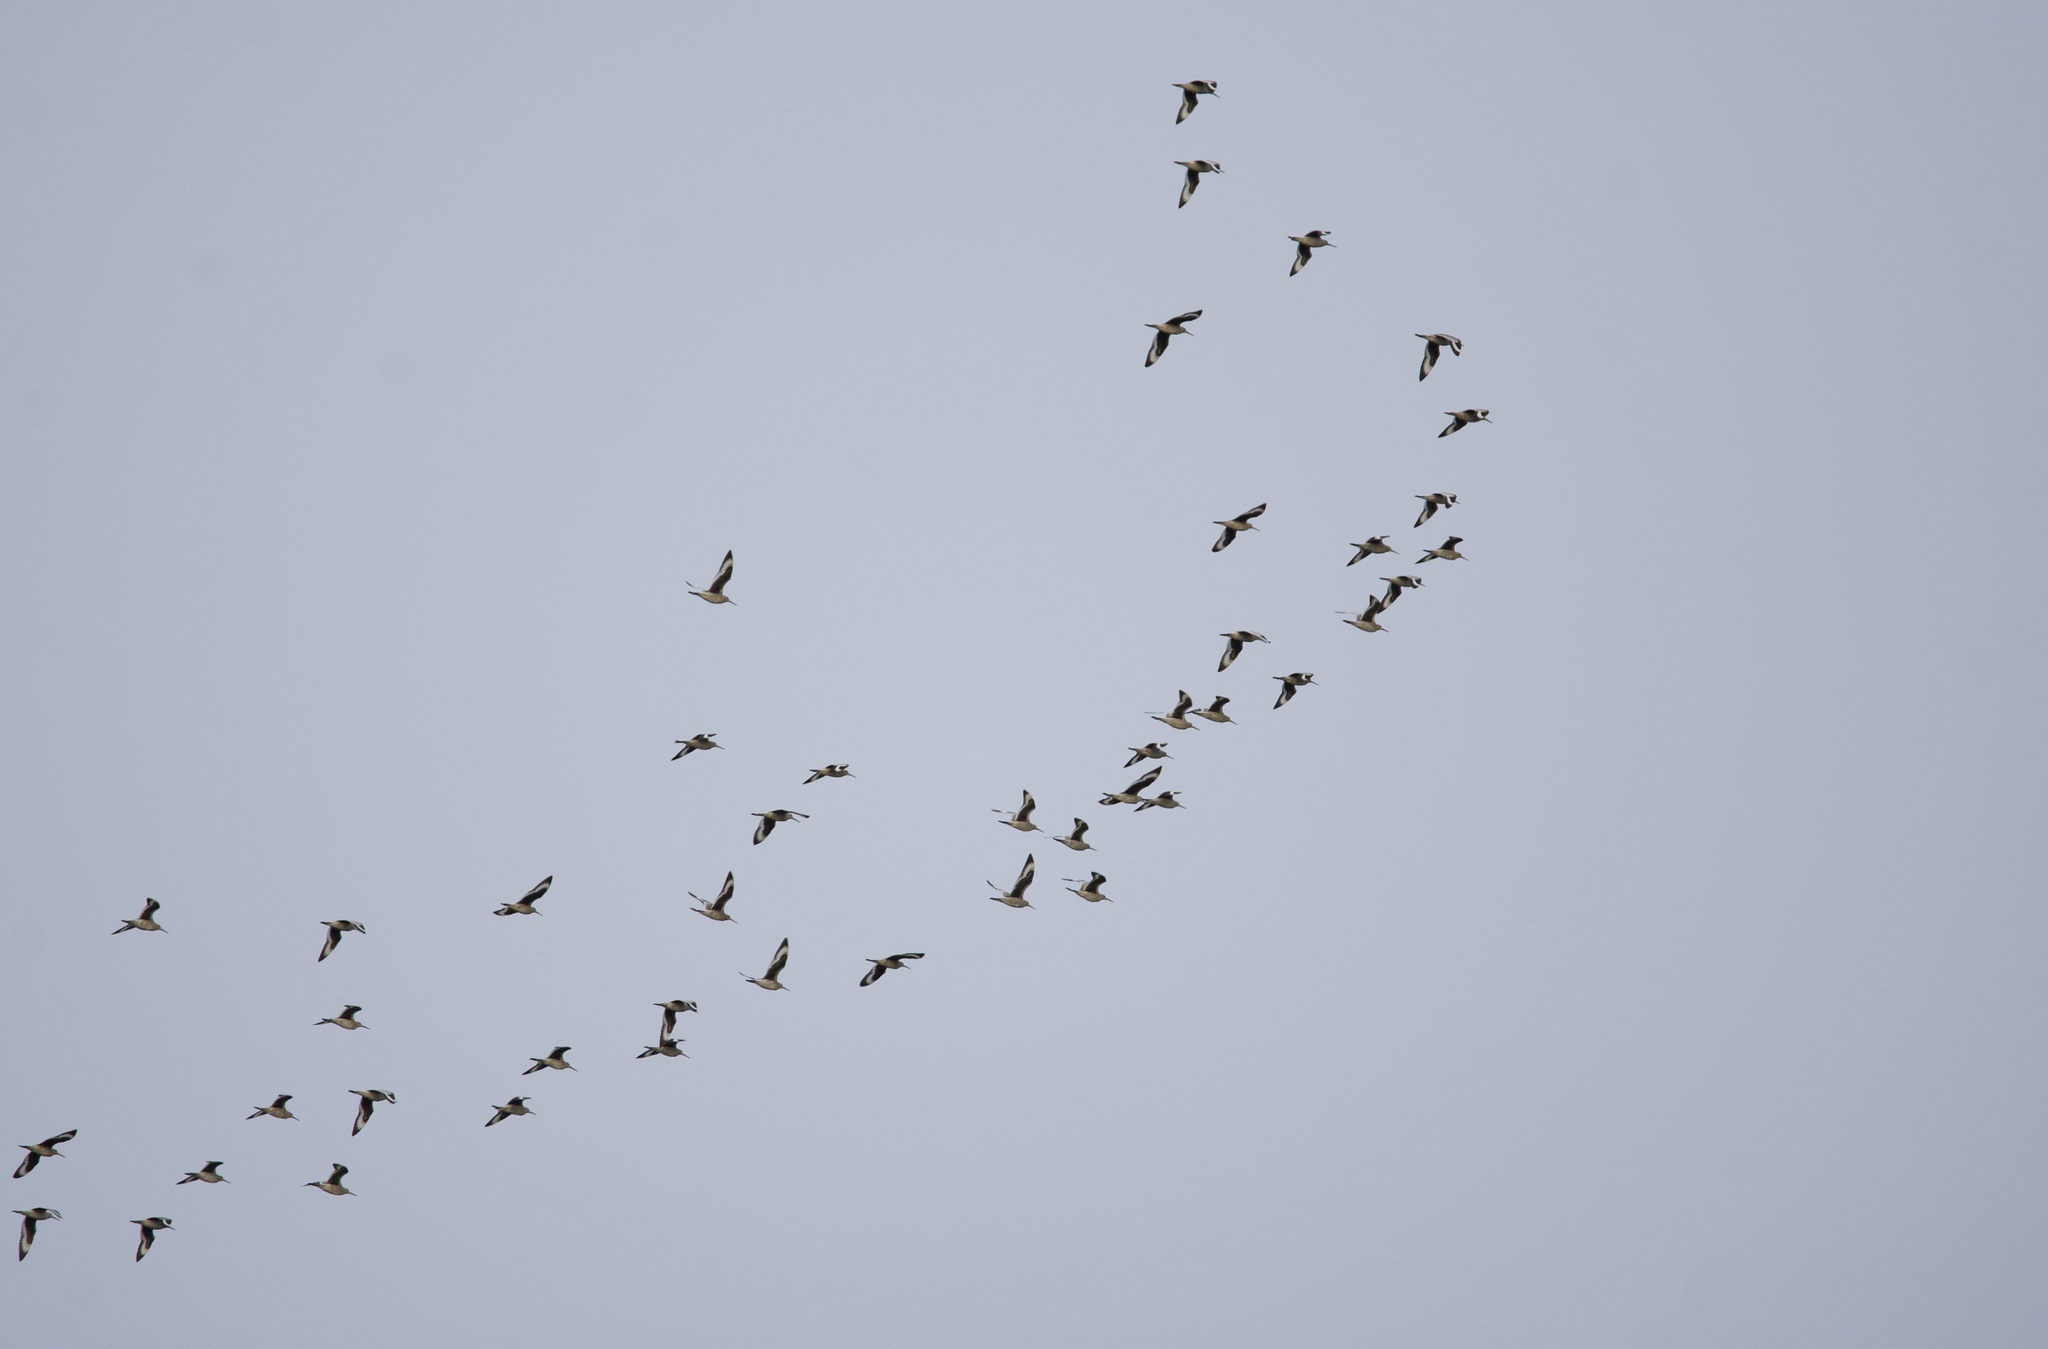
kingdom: Animalia
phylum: Chordata
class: Aves
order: Charadriiformes
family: Scolopacidae
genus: Tringa
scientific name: Tringa semipalmata
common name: Willet
